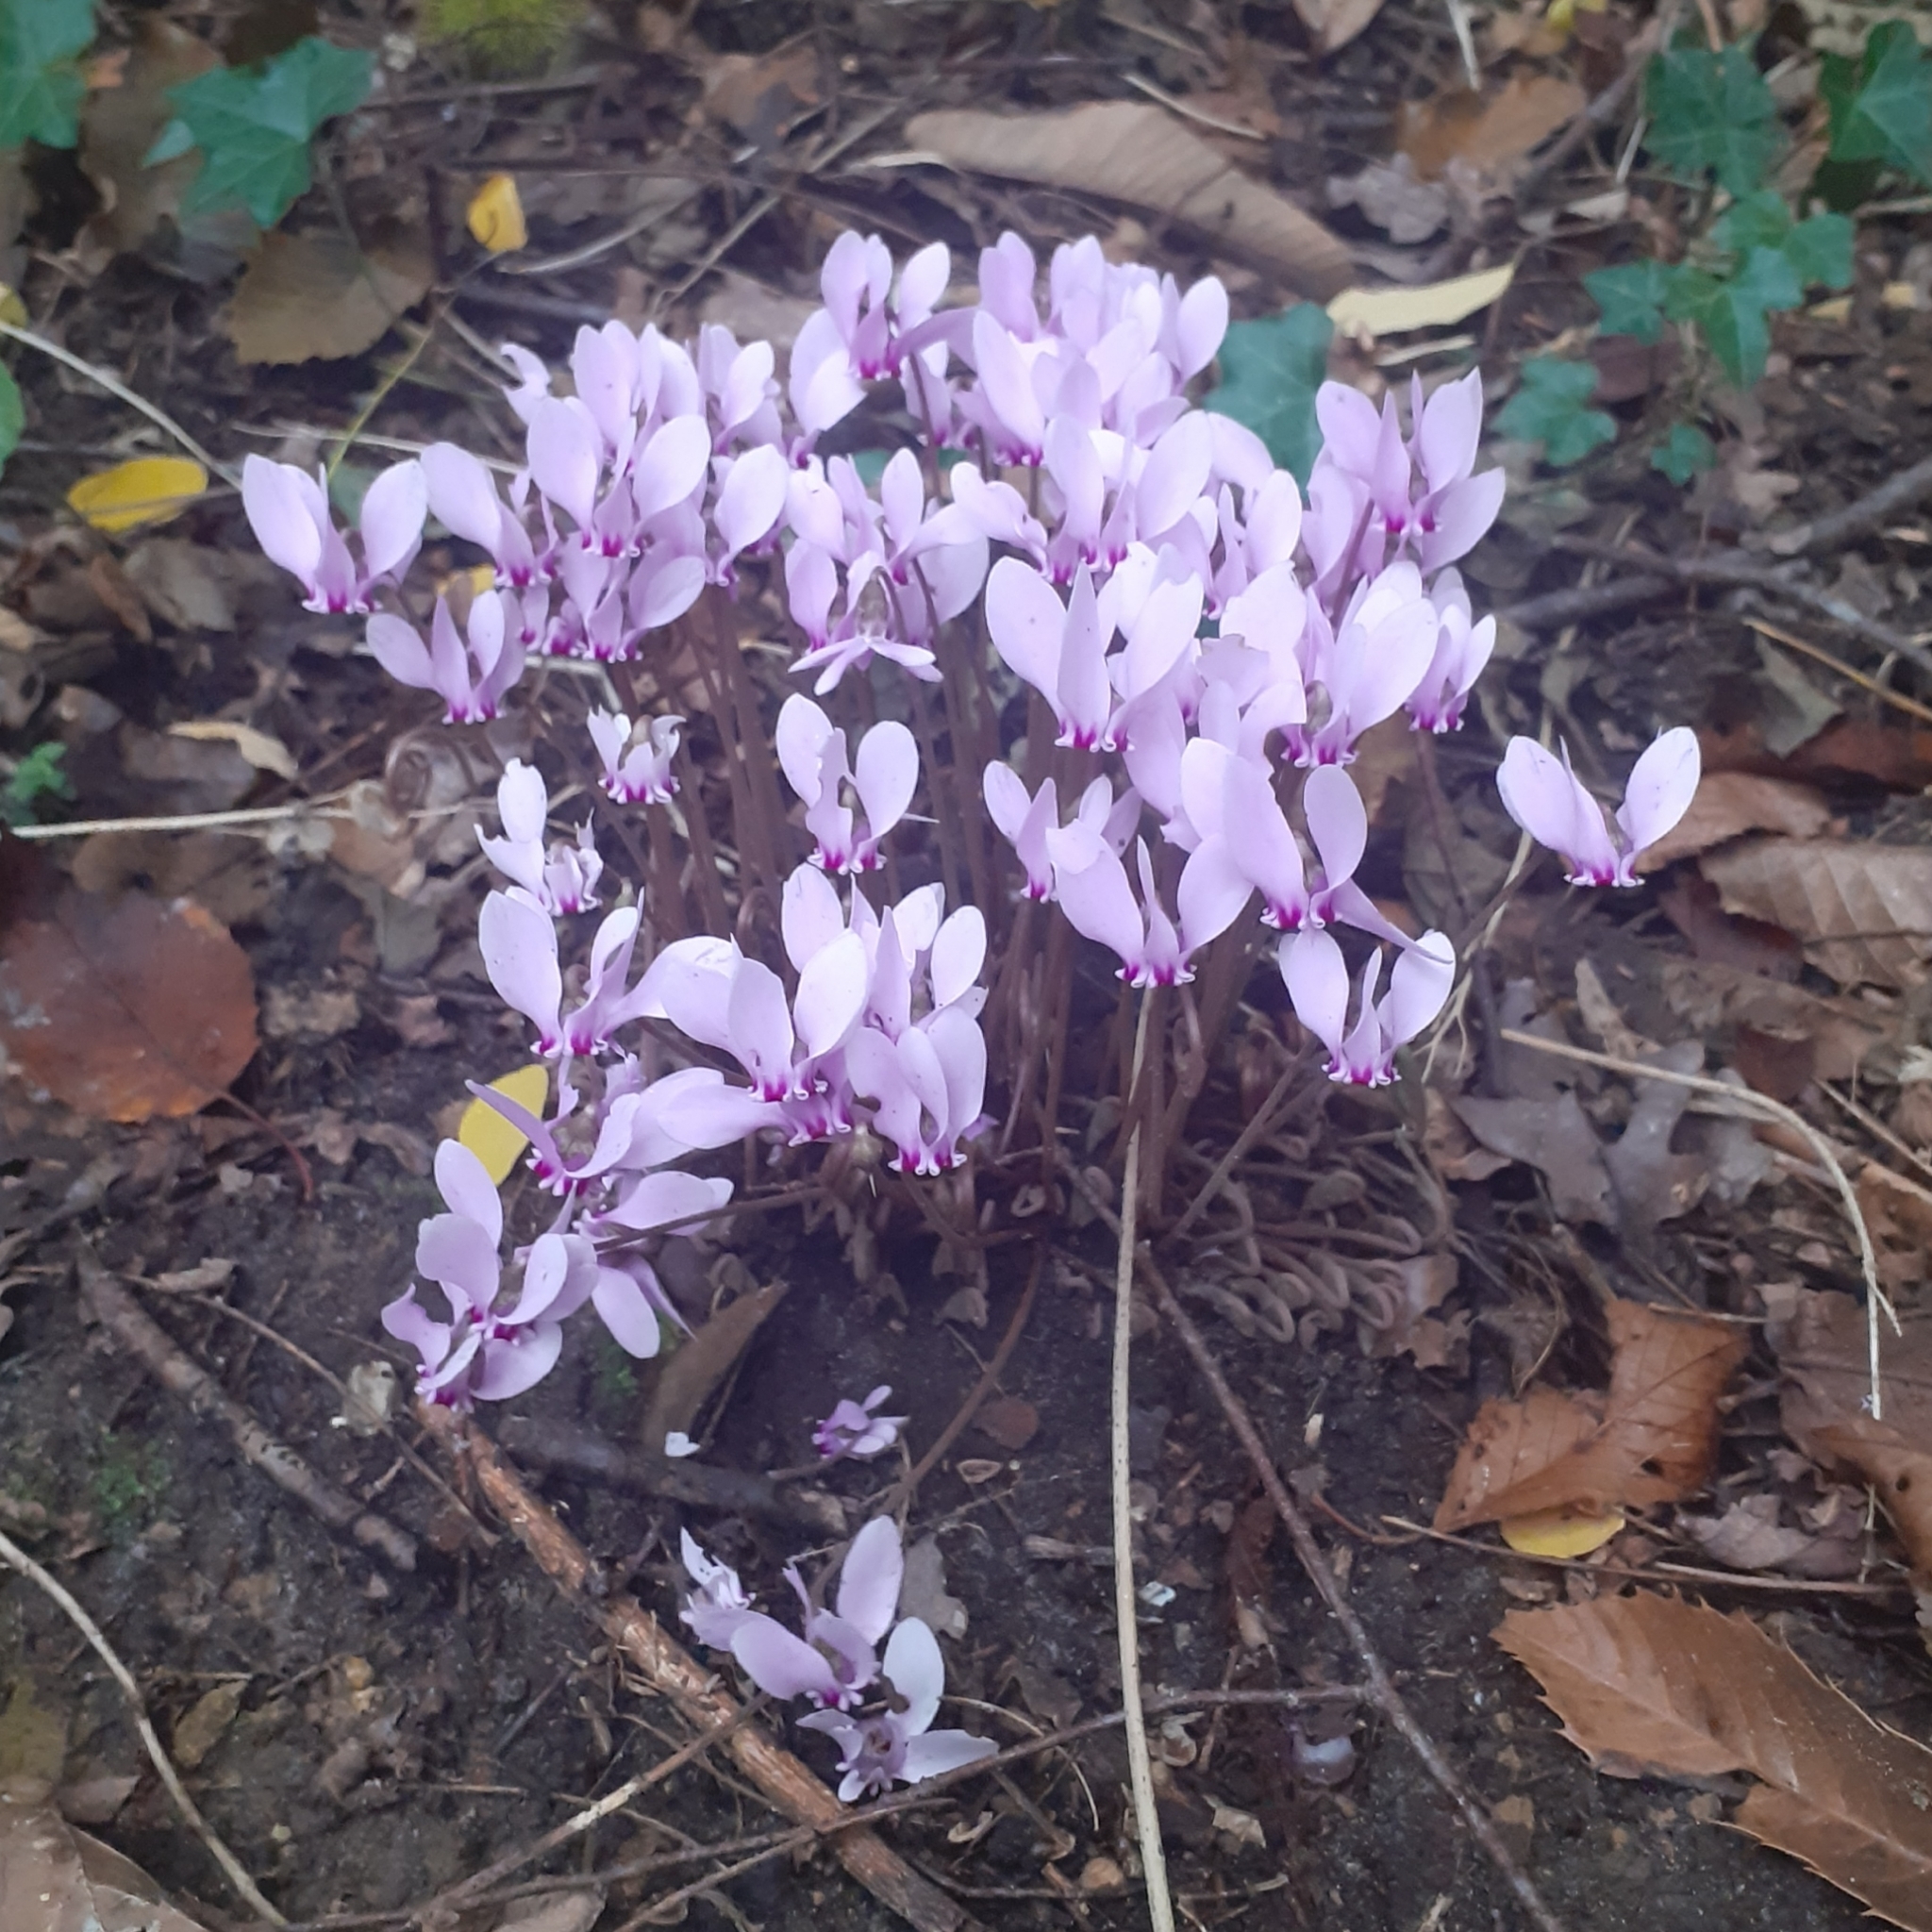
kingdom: Plantae
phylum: Tracheophyta
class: Magnoliopsida
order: Ericales
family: Primulaceae
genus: Cyclamen
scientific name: Cyclamen hederifolium
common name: Sowbread
